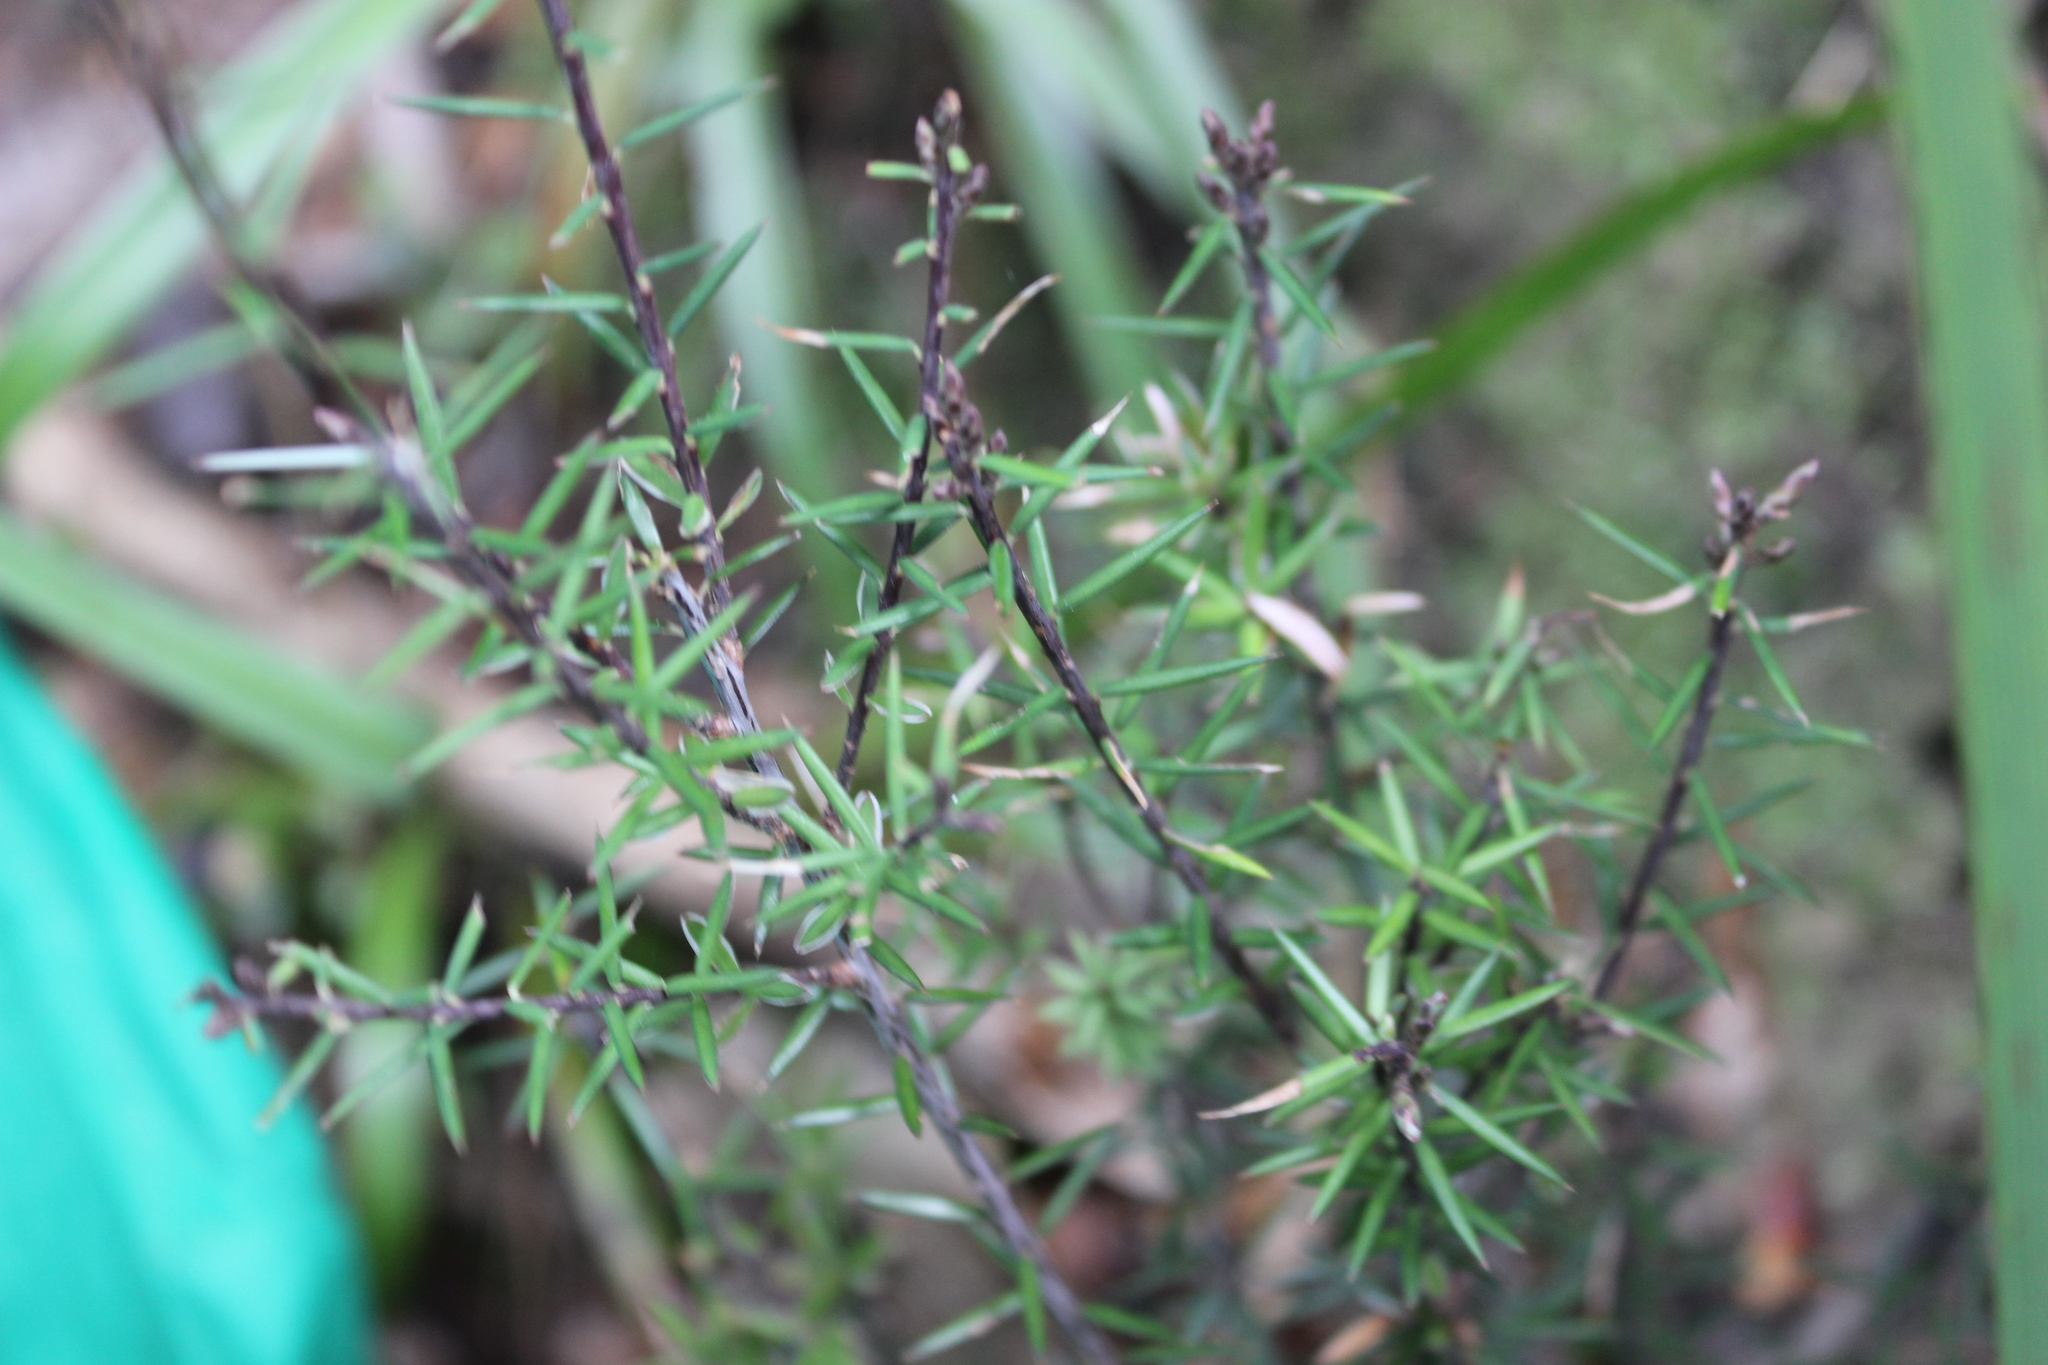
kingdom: Plantae
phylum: Tracheophyta
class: Magnoliopsida
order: Ericales
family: Ericaceae
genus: Leptecophylla
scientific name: Leptecophylla juniperina
